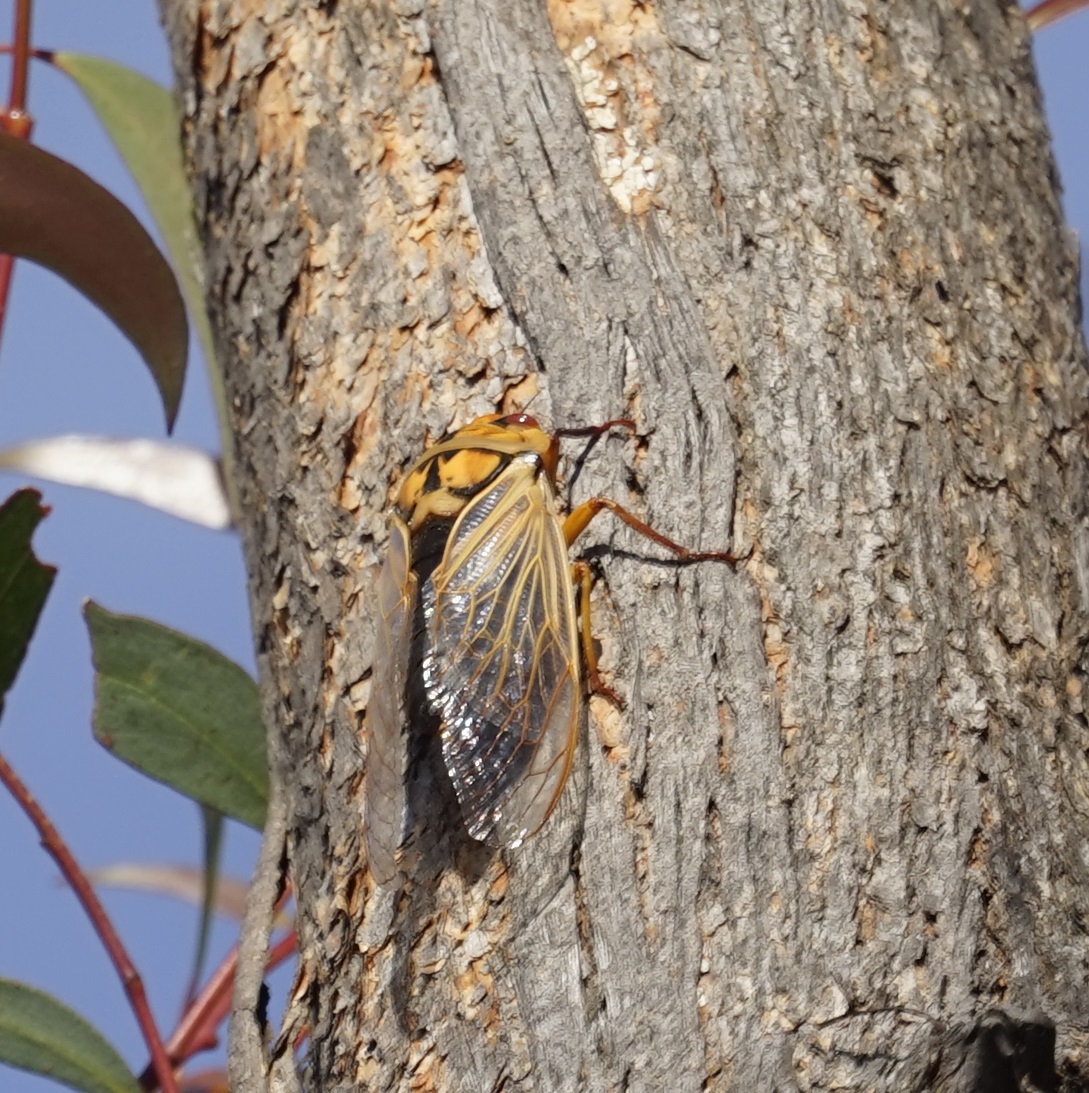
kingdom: Animalia
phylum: Arthropoda
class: Insecta
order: Hemiptera
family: Cicadidae
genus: Cyclochila
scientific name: Cyclochila australasiae
